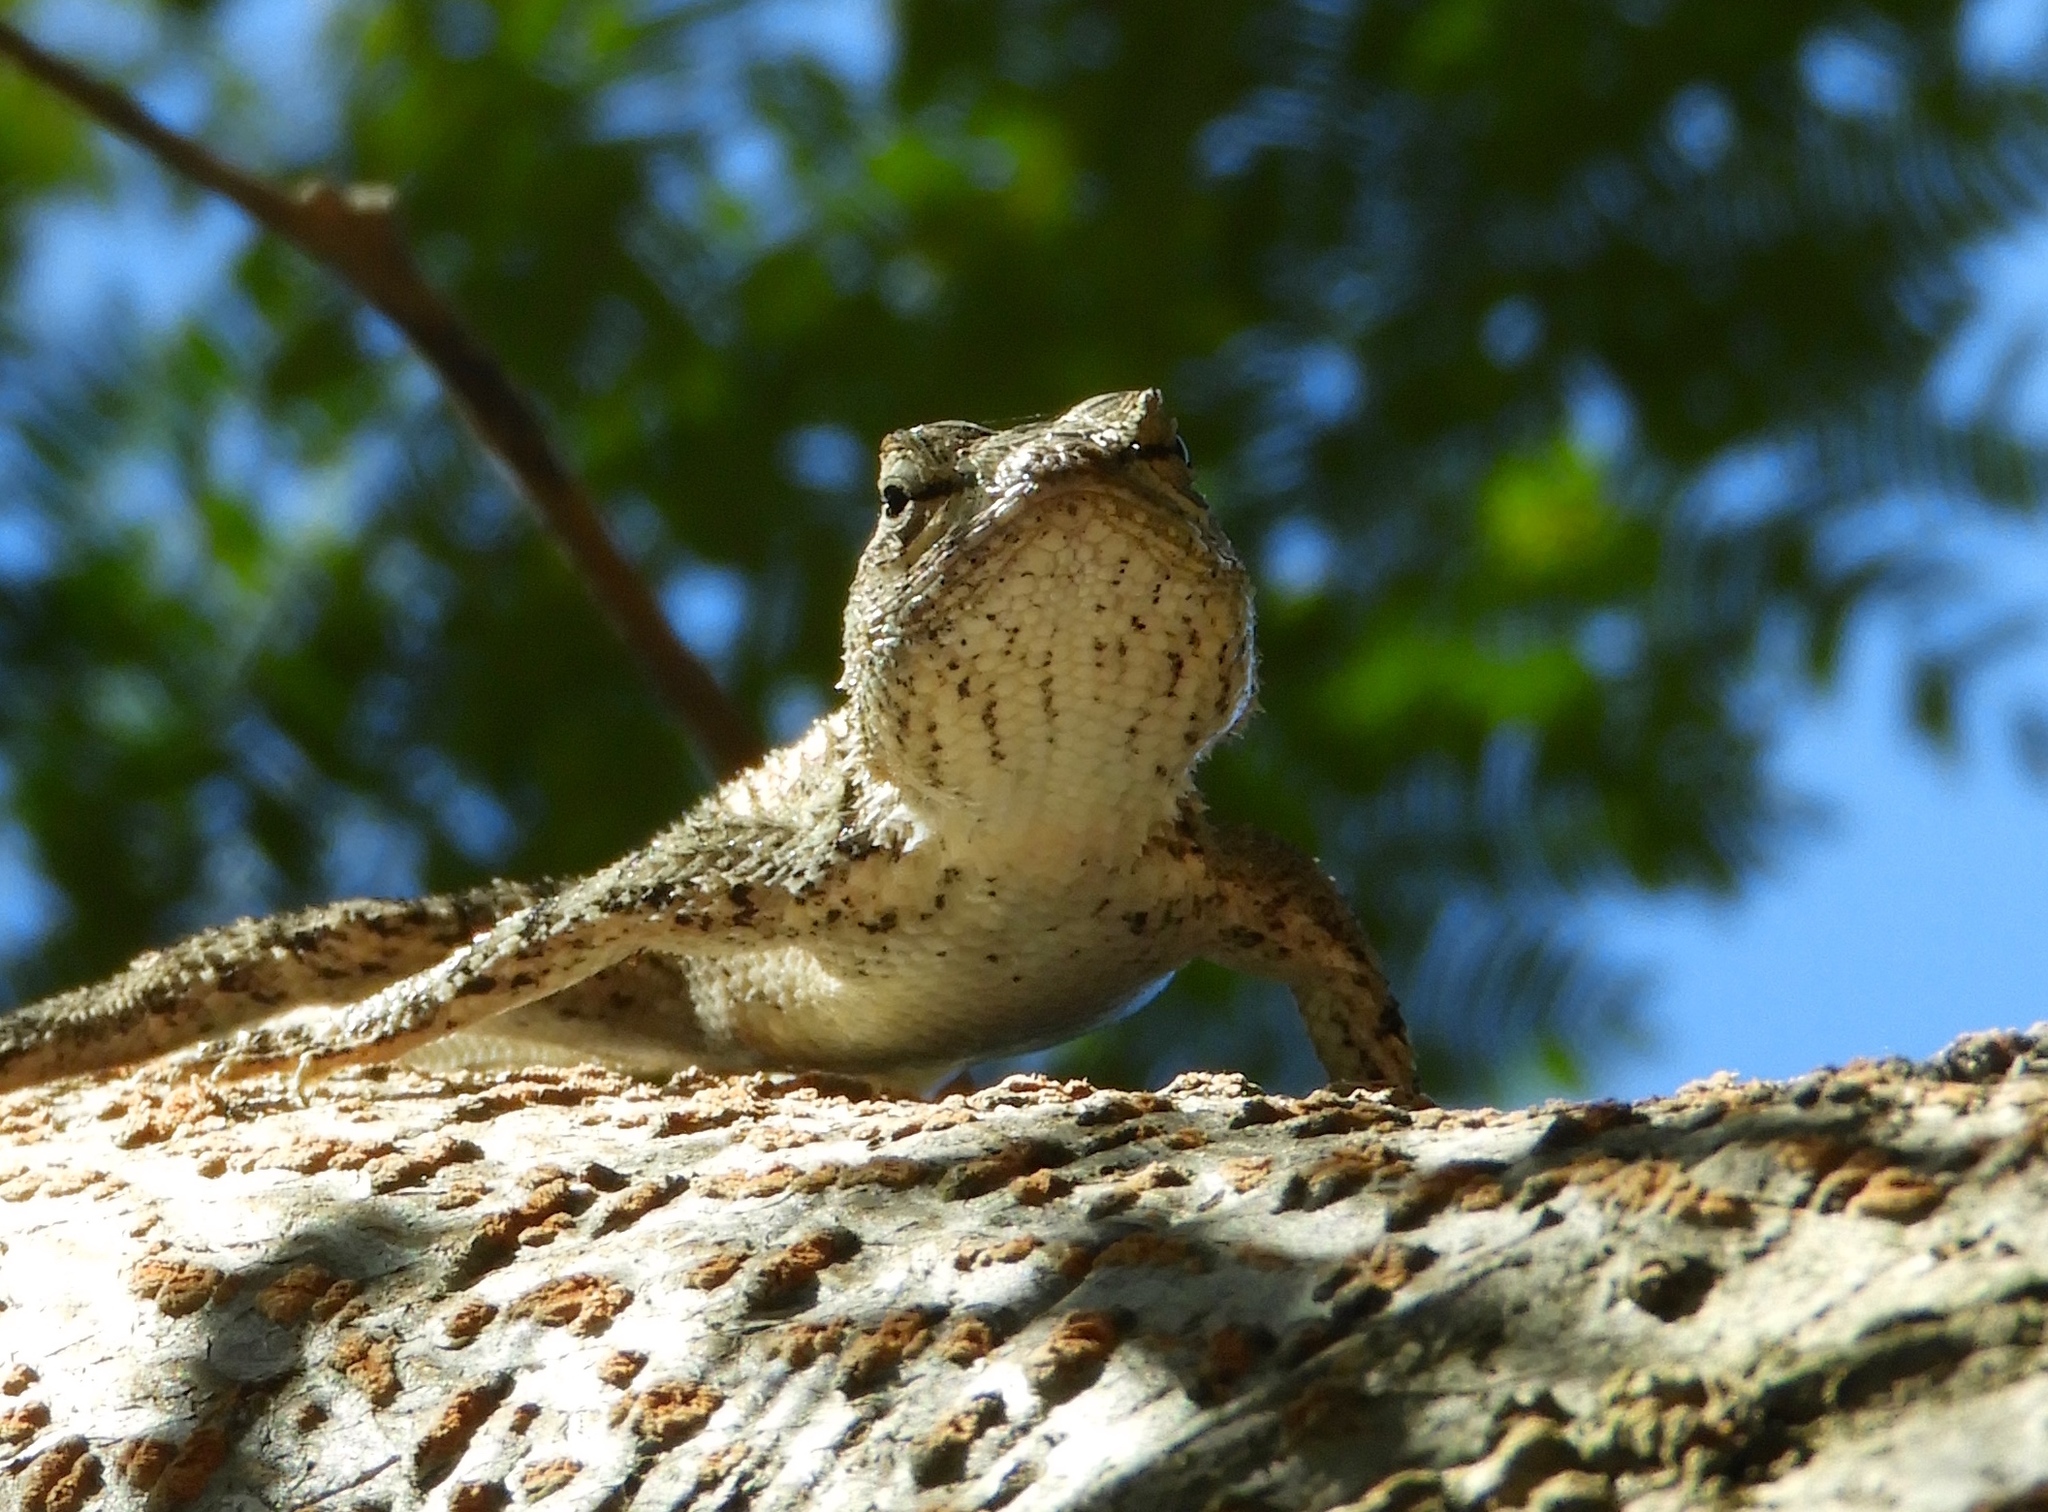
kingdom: Animalia
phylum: Chordata
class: Squamata
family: Phrynosomatidae
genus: Sceloporus
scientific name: Sceloporus clarkii
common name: Clark's spiny lizard
